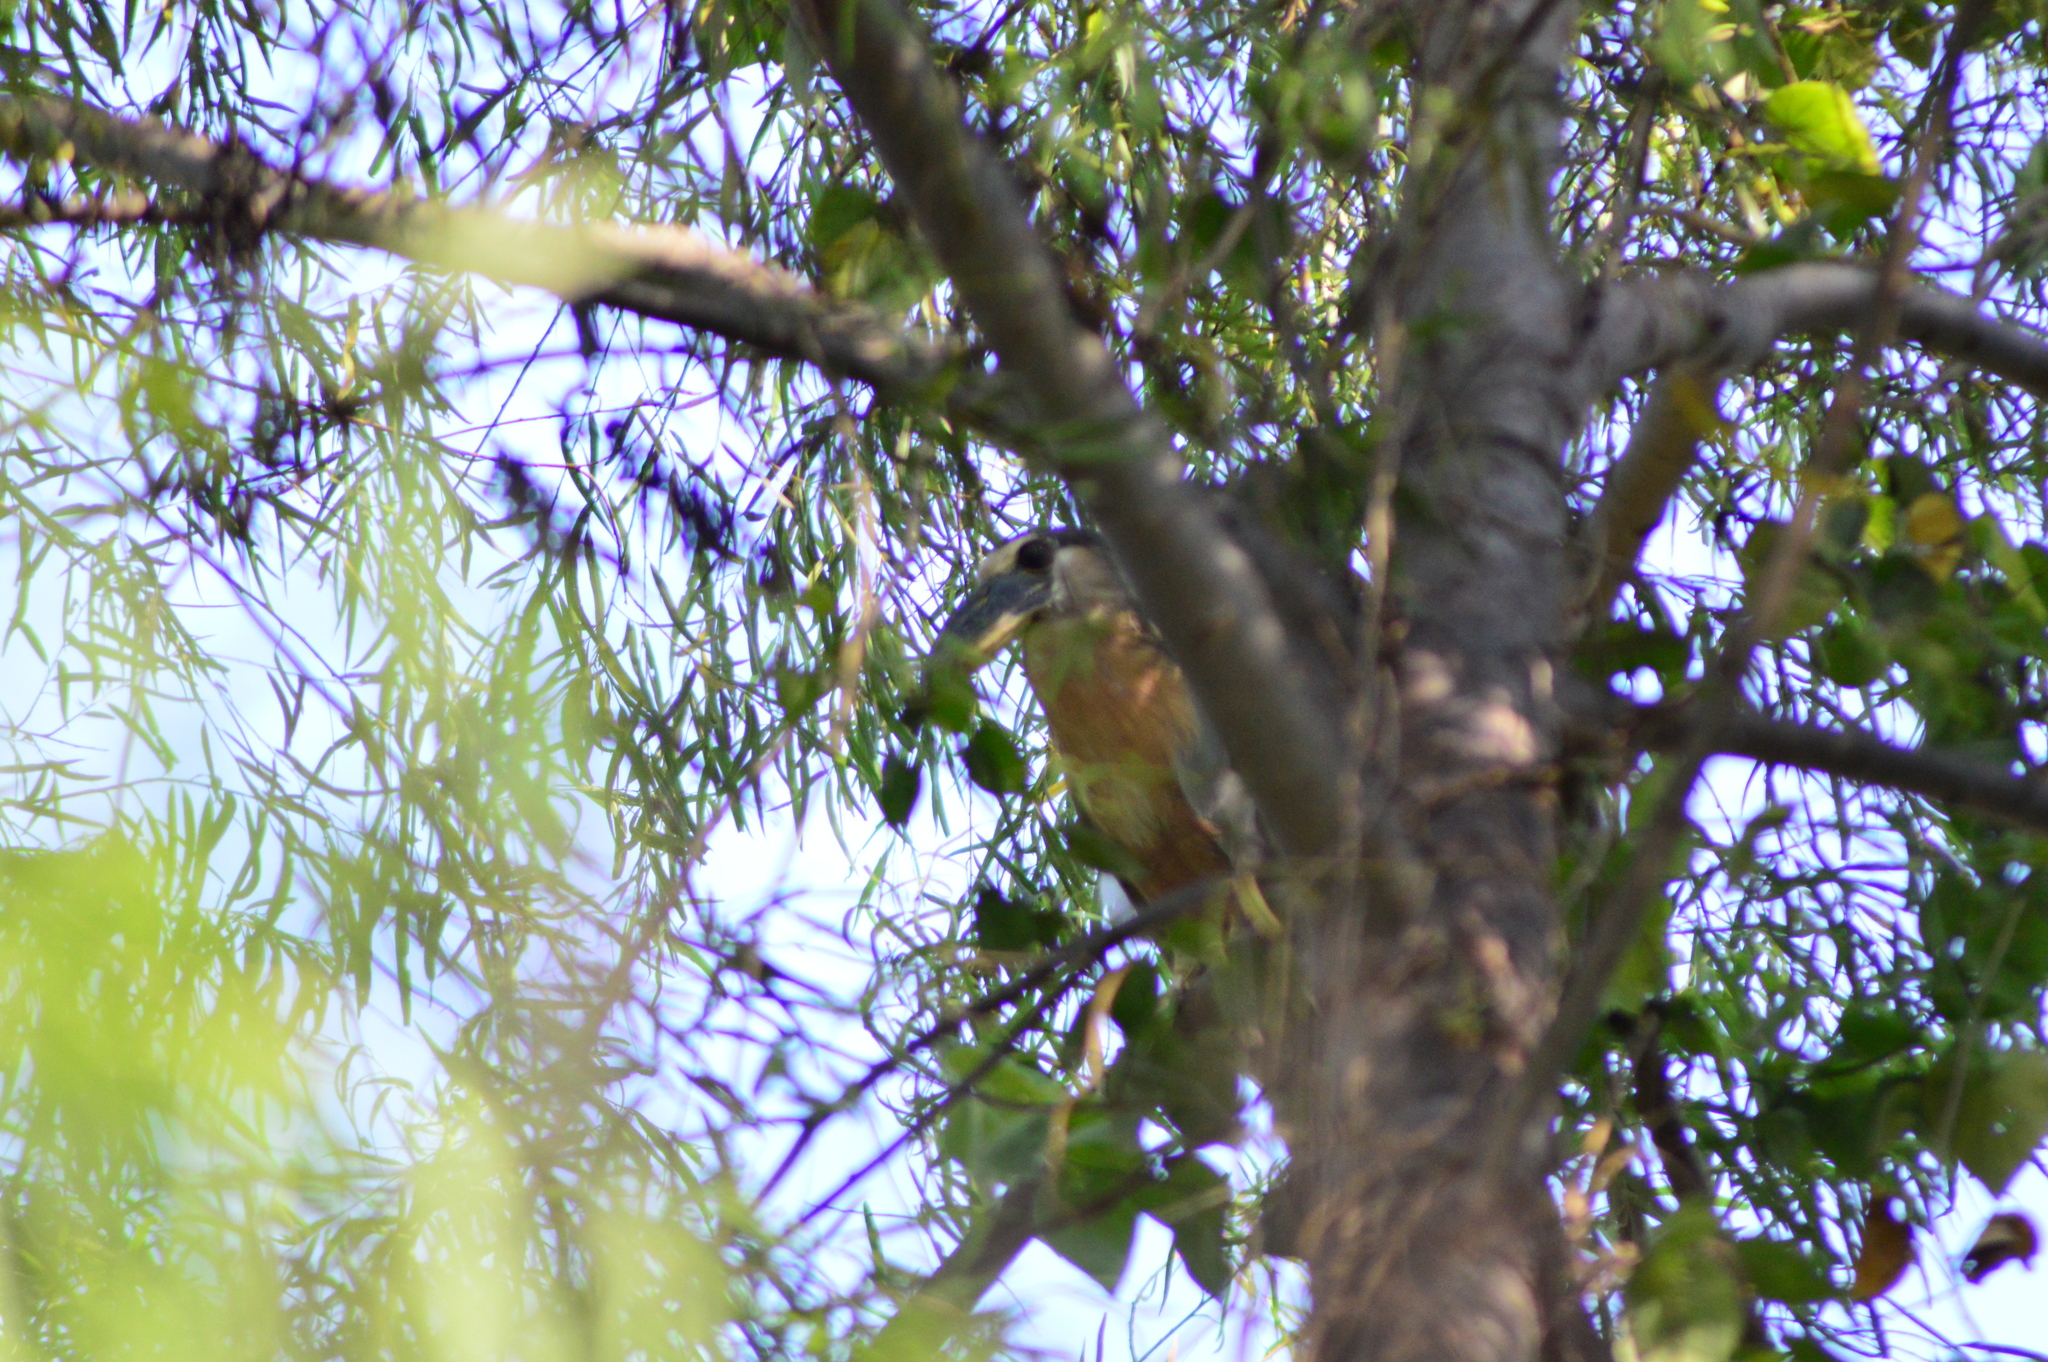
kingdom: Animalia
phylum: Chordata
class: Aves
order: Pelecaniformes
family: Ardeidae
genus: Cochlearius
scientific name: Cochlearius cochlearius
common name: Boat-billed heron
